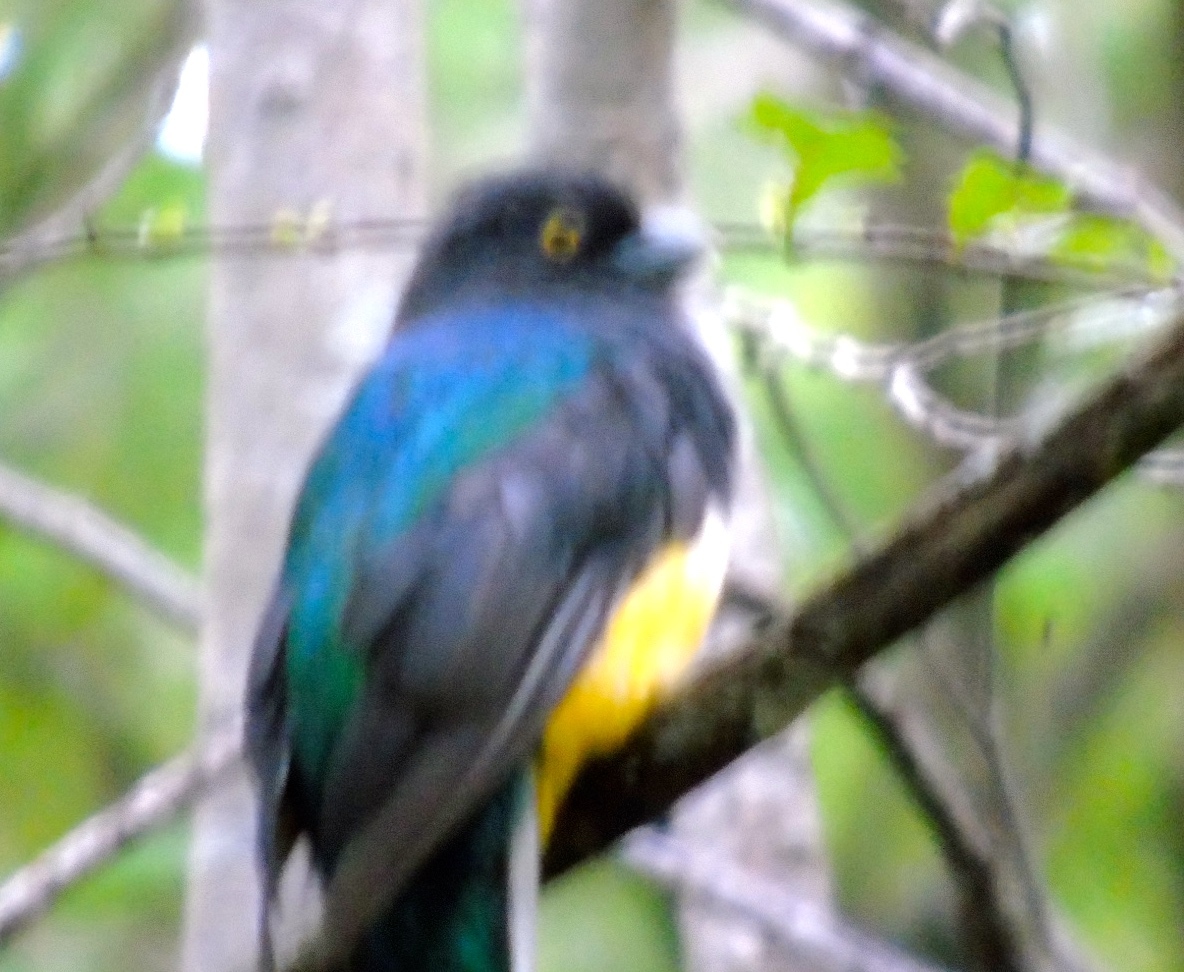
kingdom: Animalia
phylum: Chordata
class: Aves
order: Trogoniformes
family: Trogonidae
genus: Trogon
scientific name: Trogon citreolus
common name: Citreoline trogon
